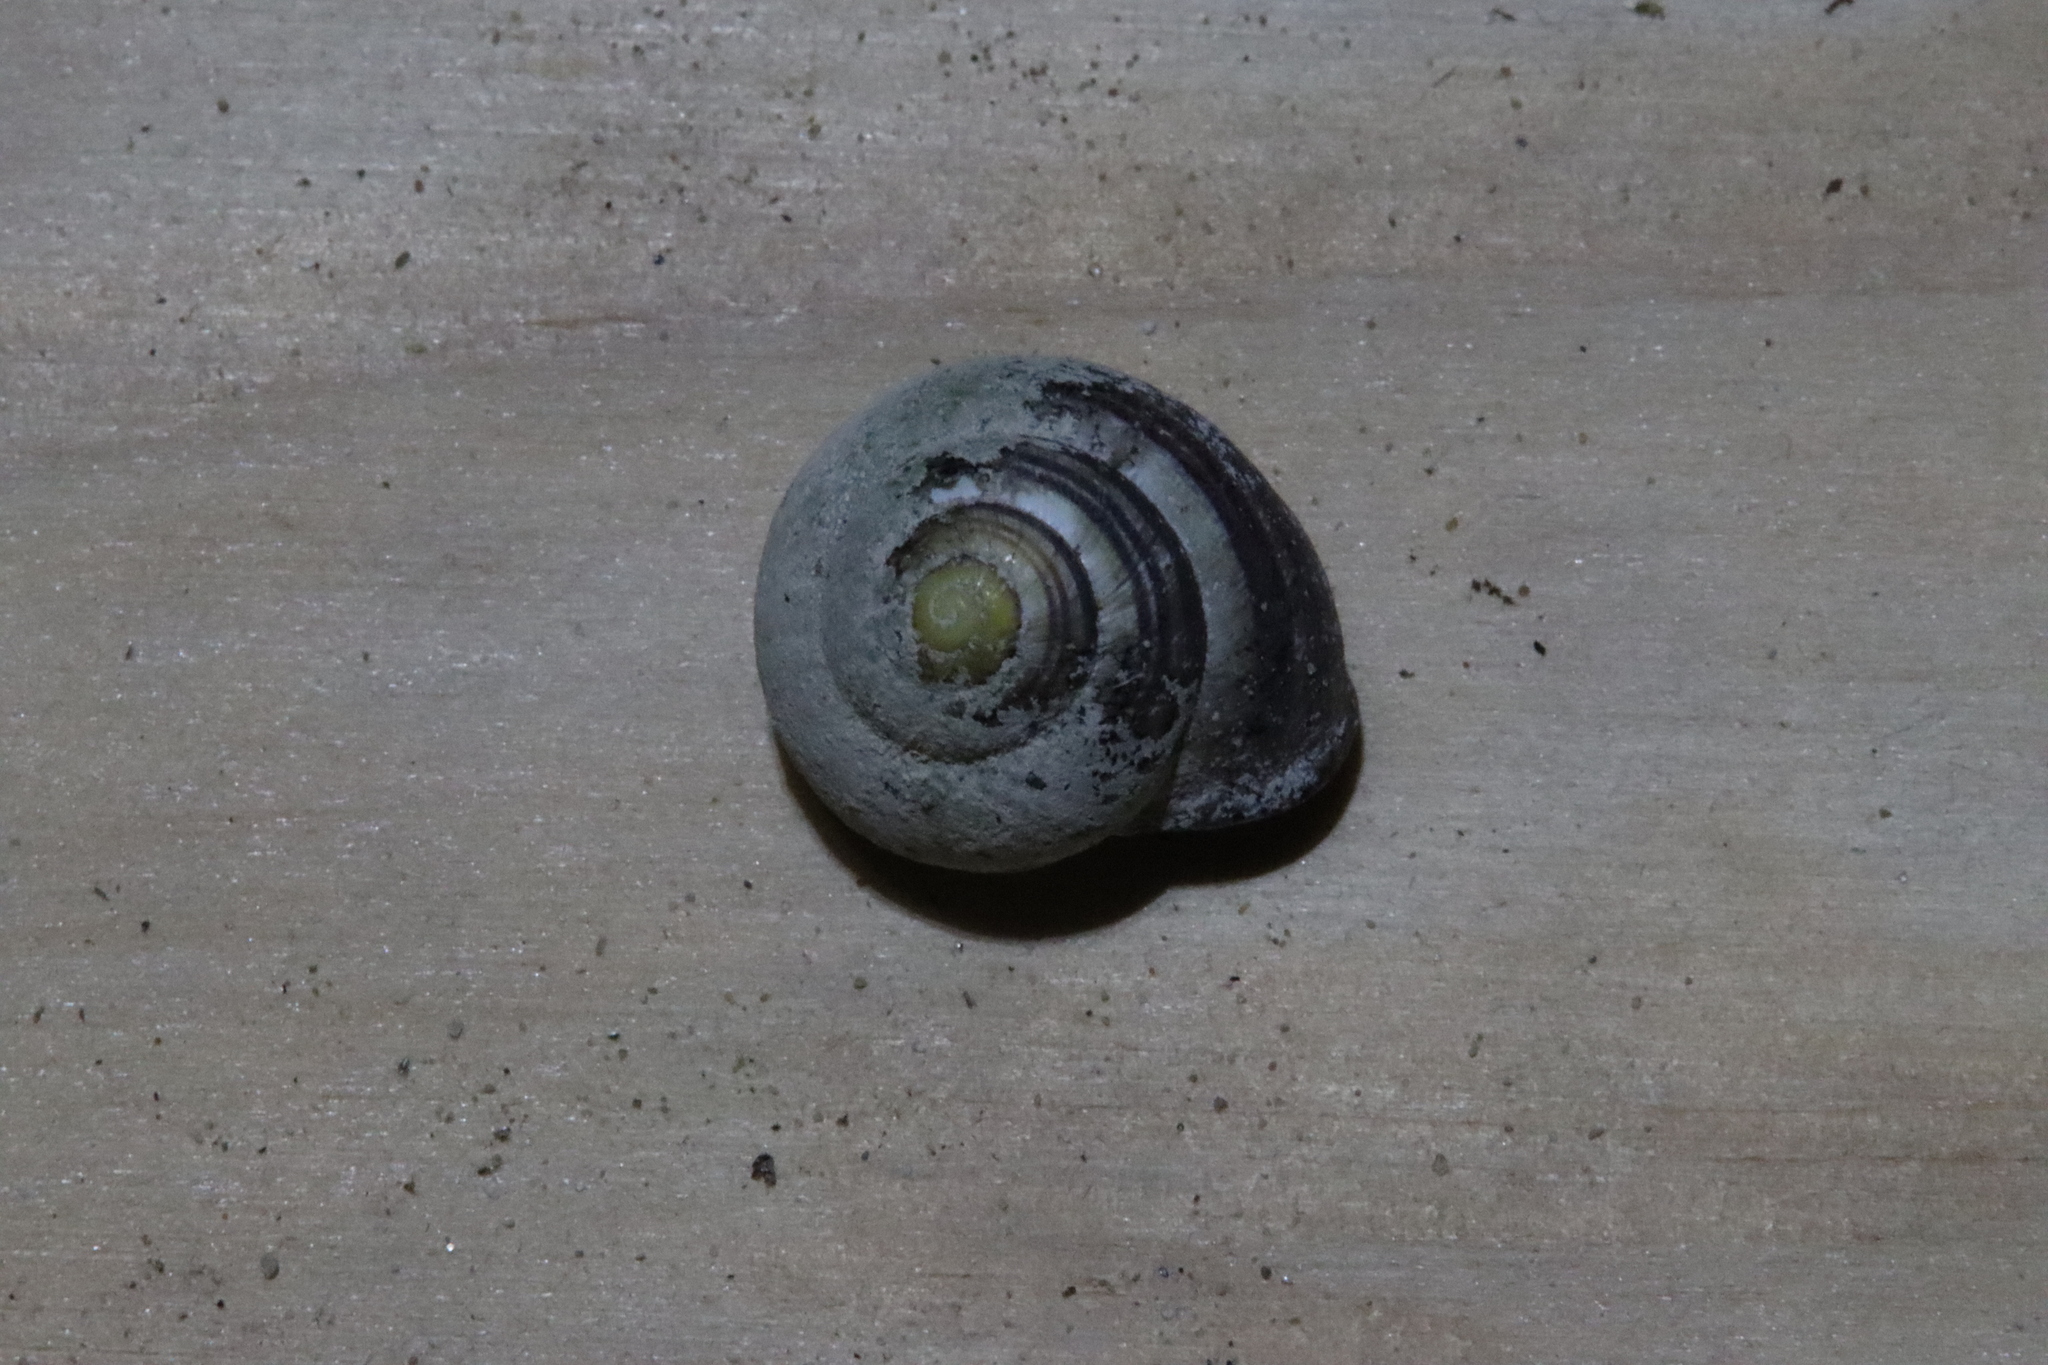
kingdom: Animalia
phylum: Mollusca
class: Gastropoda
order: Stylommatophora
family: Helicidae
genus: Cepaea
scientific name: Cepaea nemoralis
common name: Grovesnail
